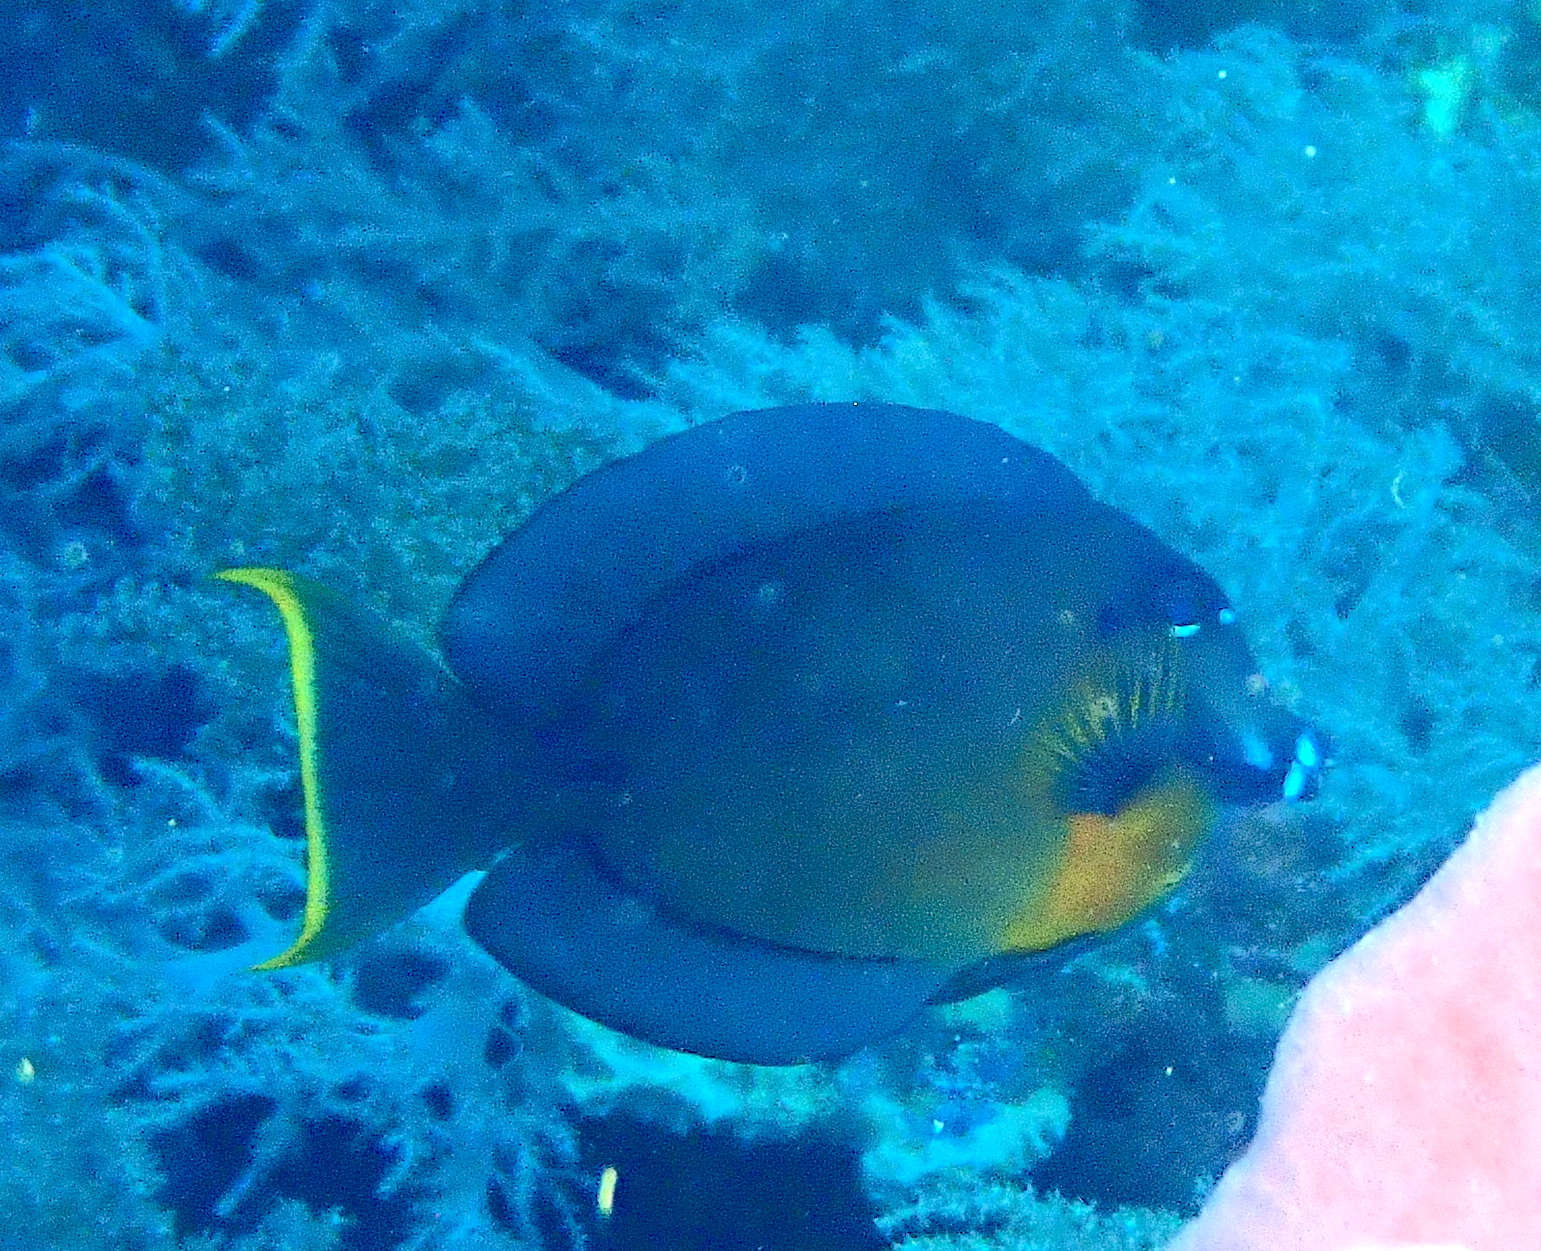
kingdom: Animalia
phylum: Chordata
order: Perciformes
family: Acanthuridae
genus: Acanthurus
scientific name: Acanthurus pyroferus
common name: Chocolate surgeonfish
